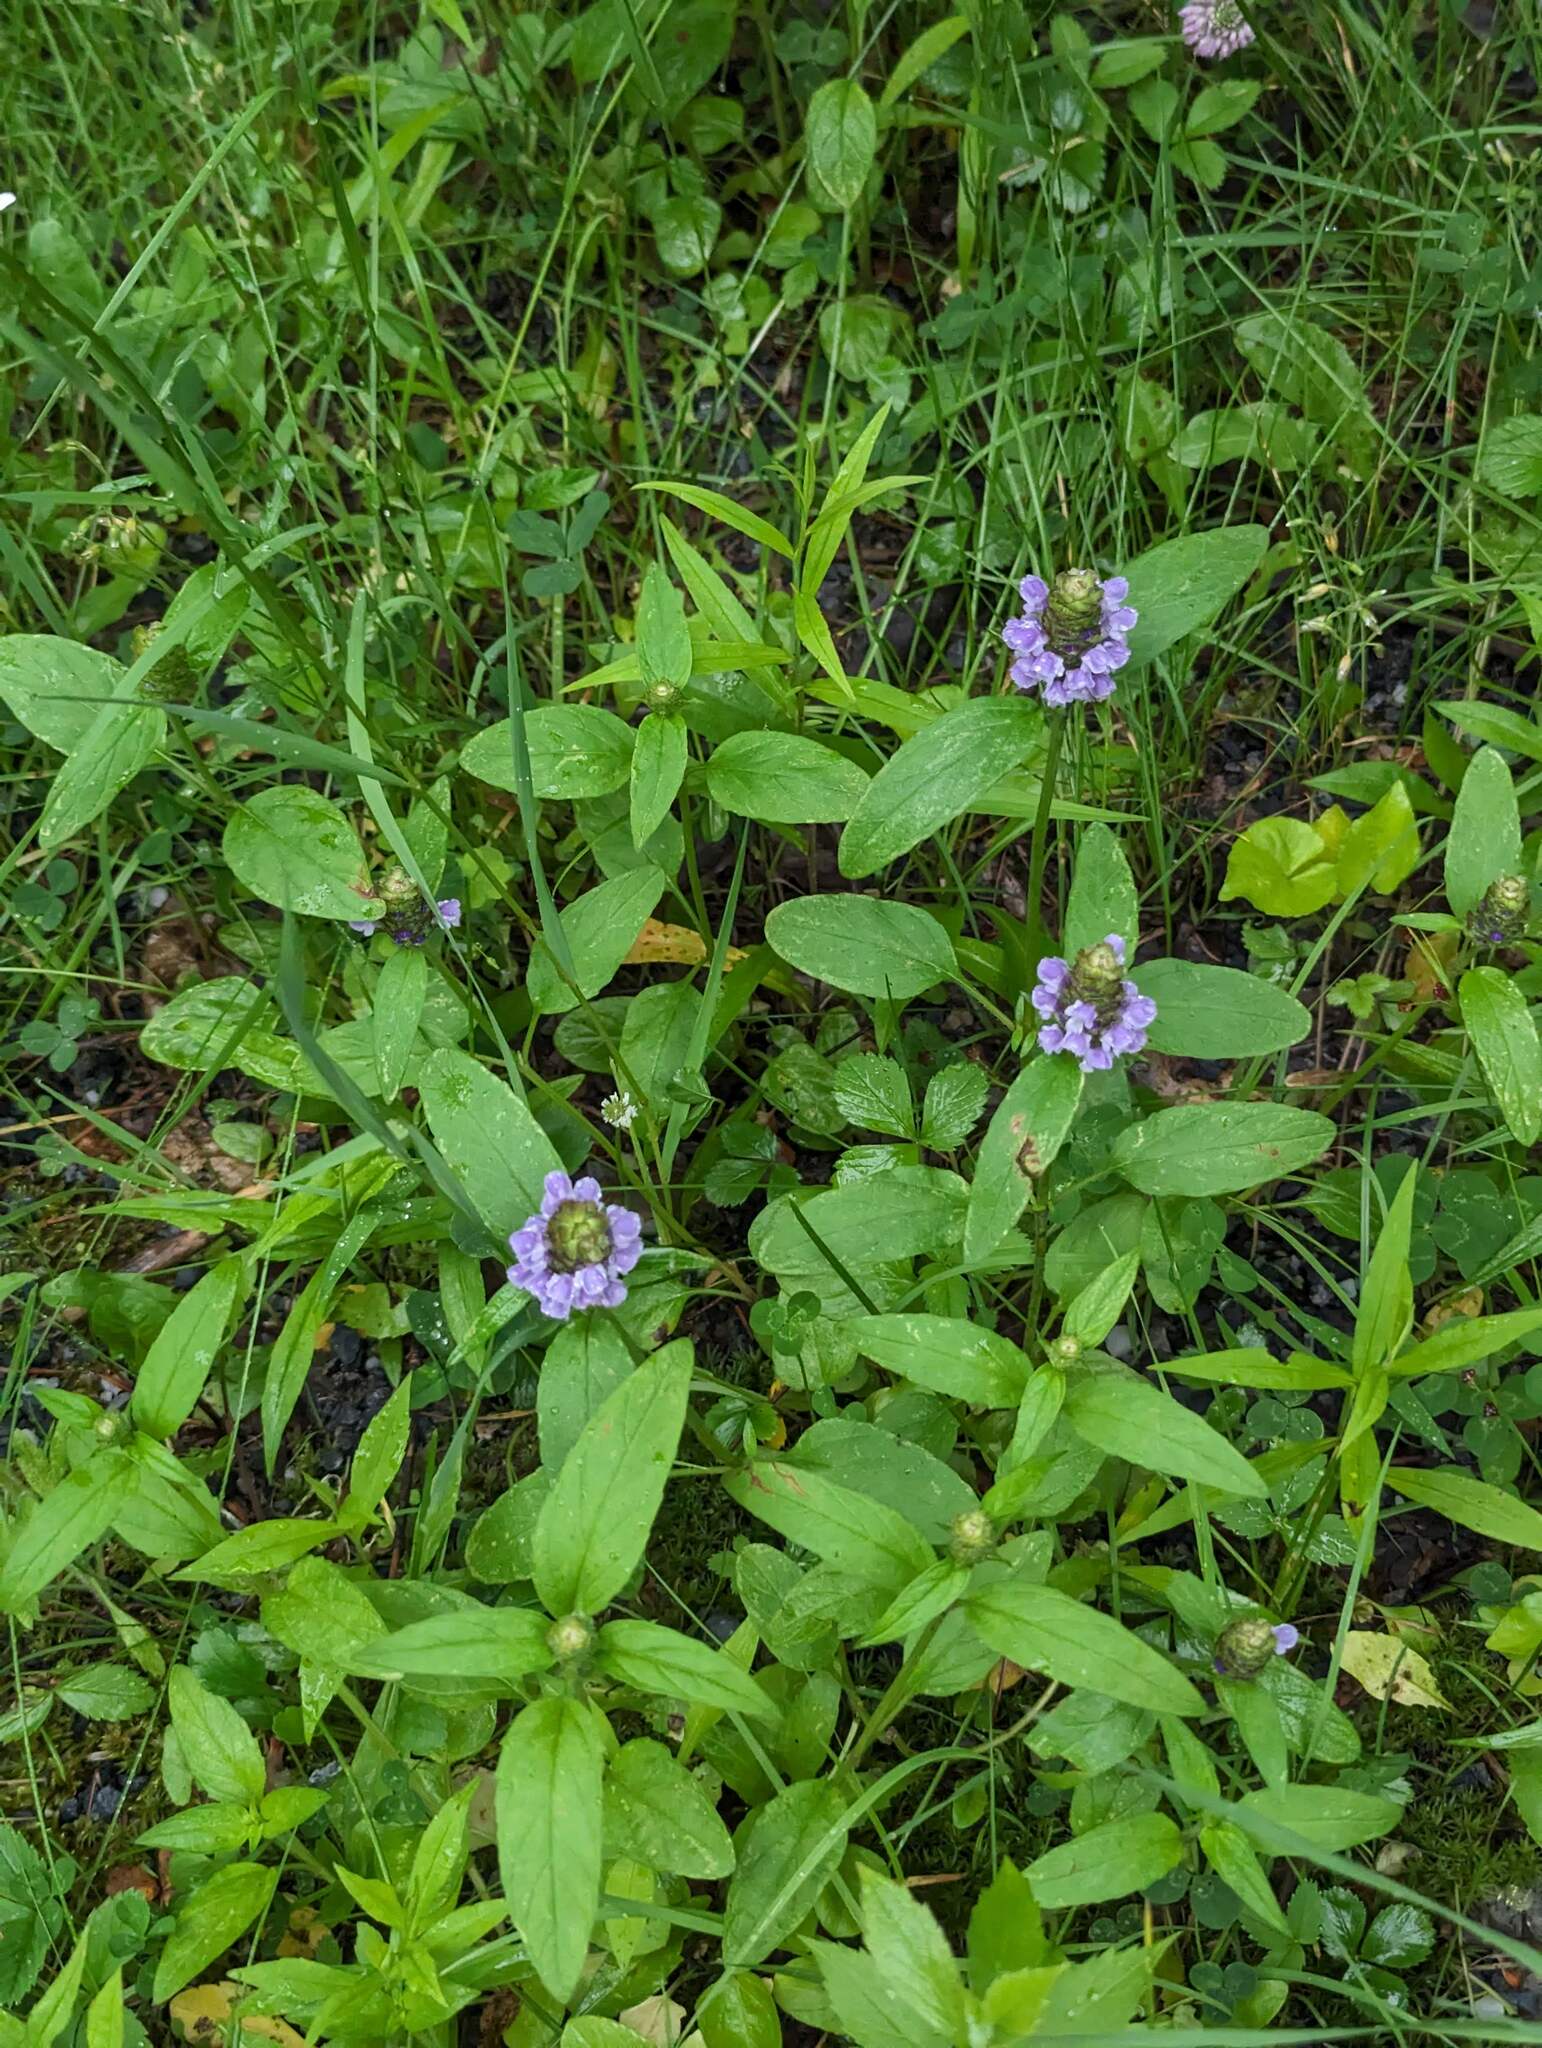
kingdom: Plantae
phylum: Tracheophyta
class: Magnoliopsida
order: Lamiales
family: Lamiaceae
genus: Prunella
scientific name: Prunella vulgaris
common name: Heal-all
